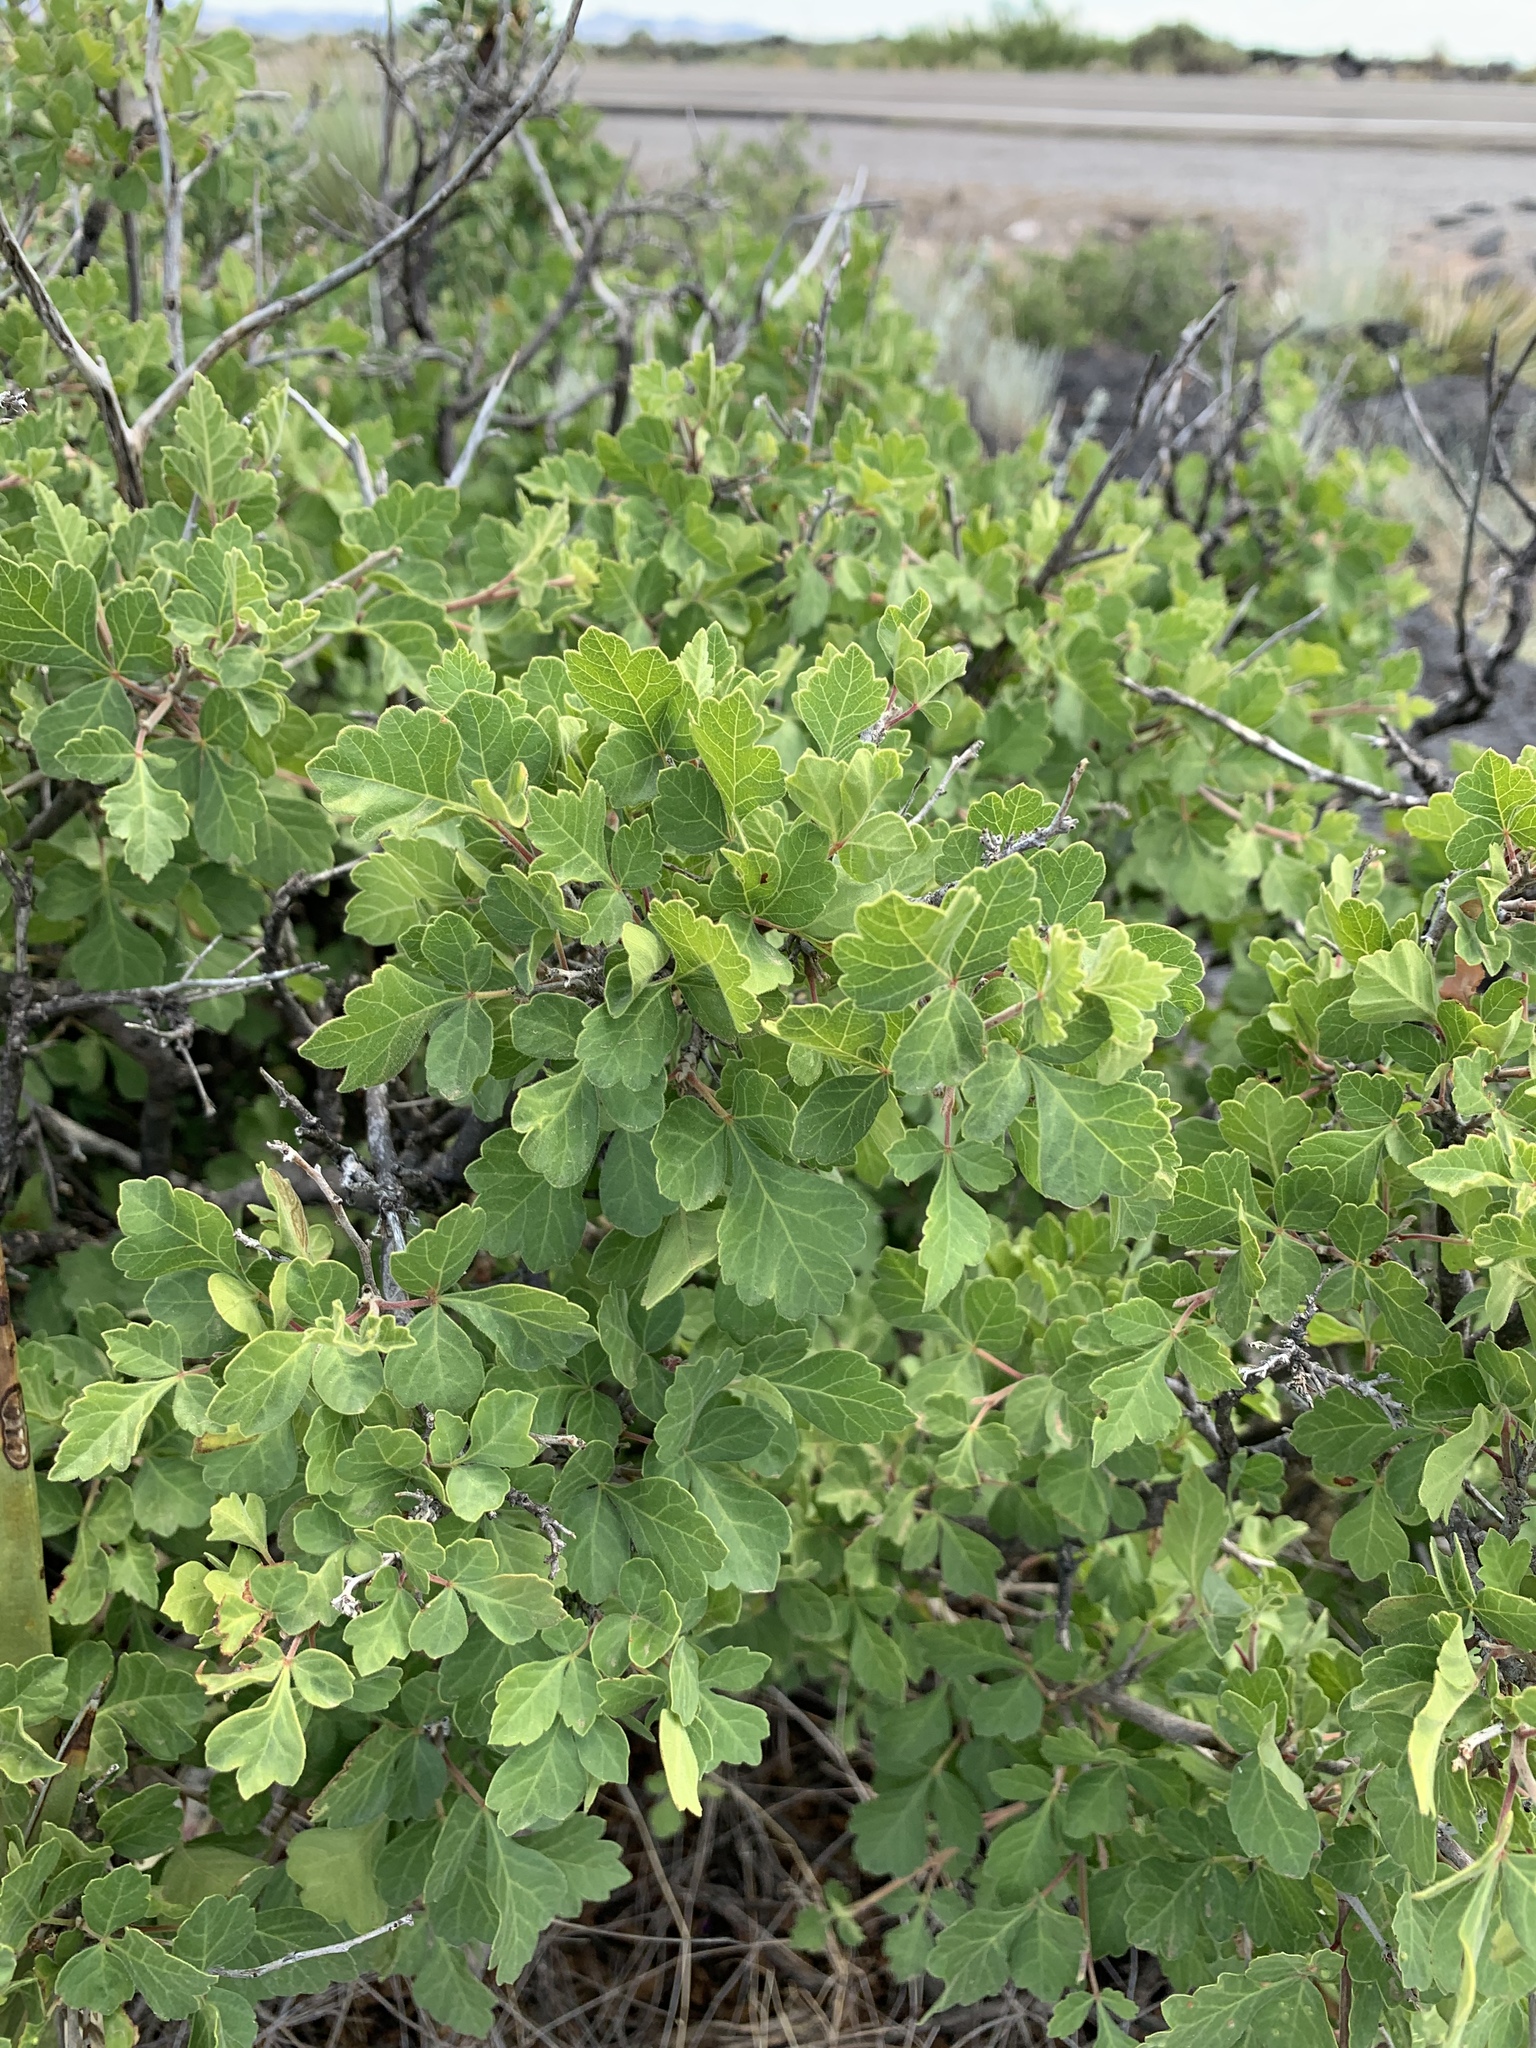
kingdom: Plantae
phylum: Tracheophyta
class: Magnoliopsida
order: Sapindales
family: Anacardiaceae
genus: Rhus
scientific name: Rhus aromatica
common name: Aromatic sumac
